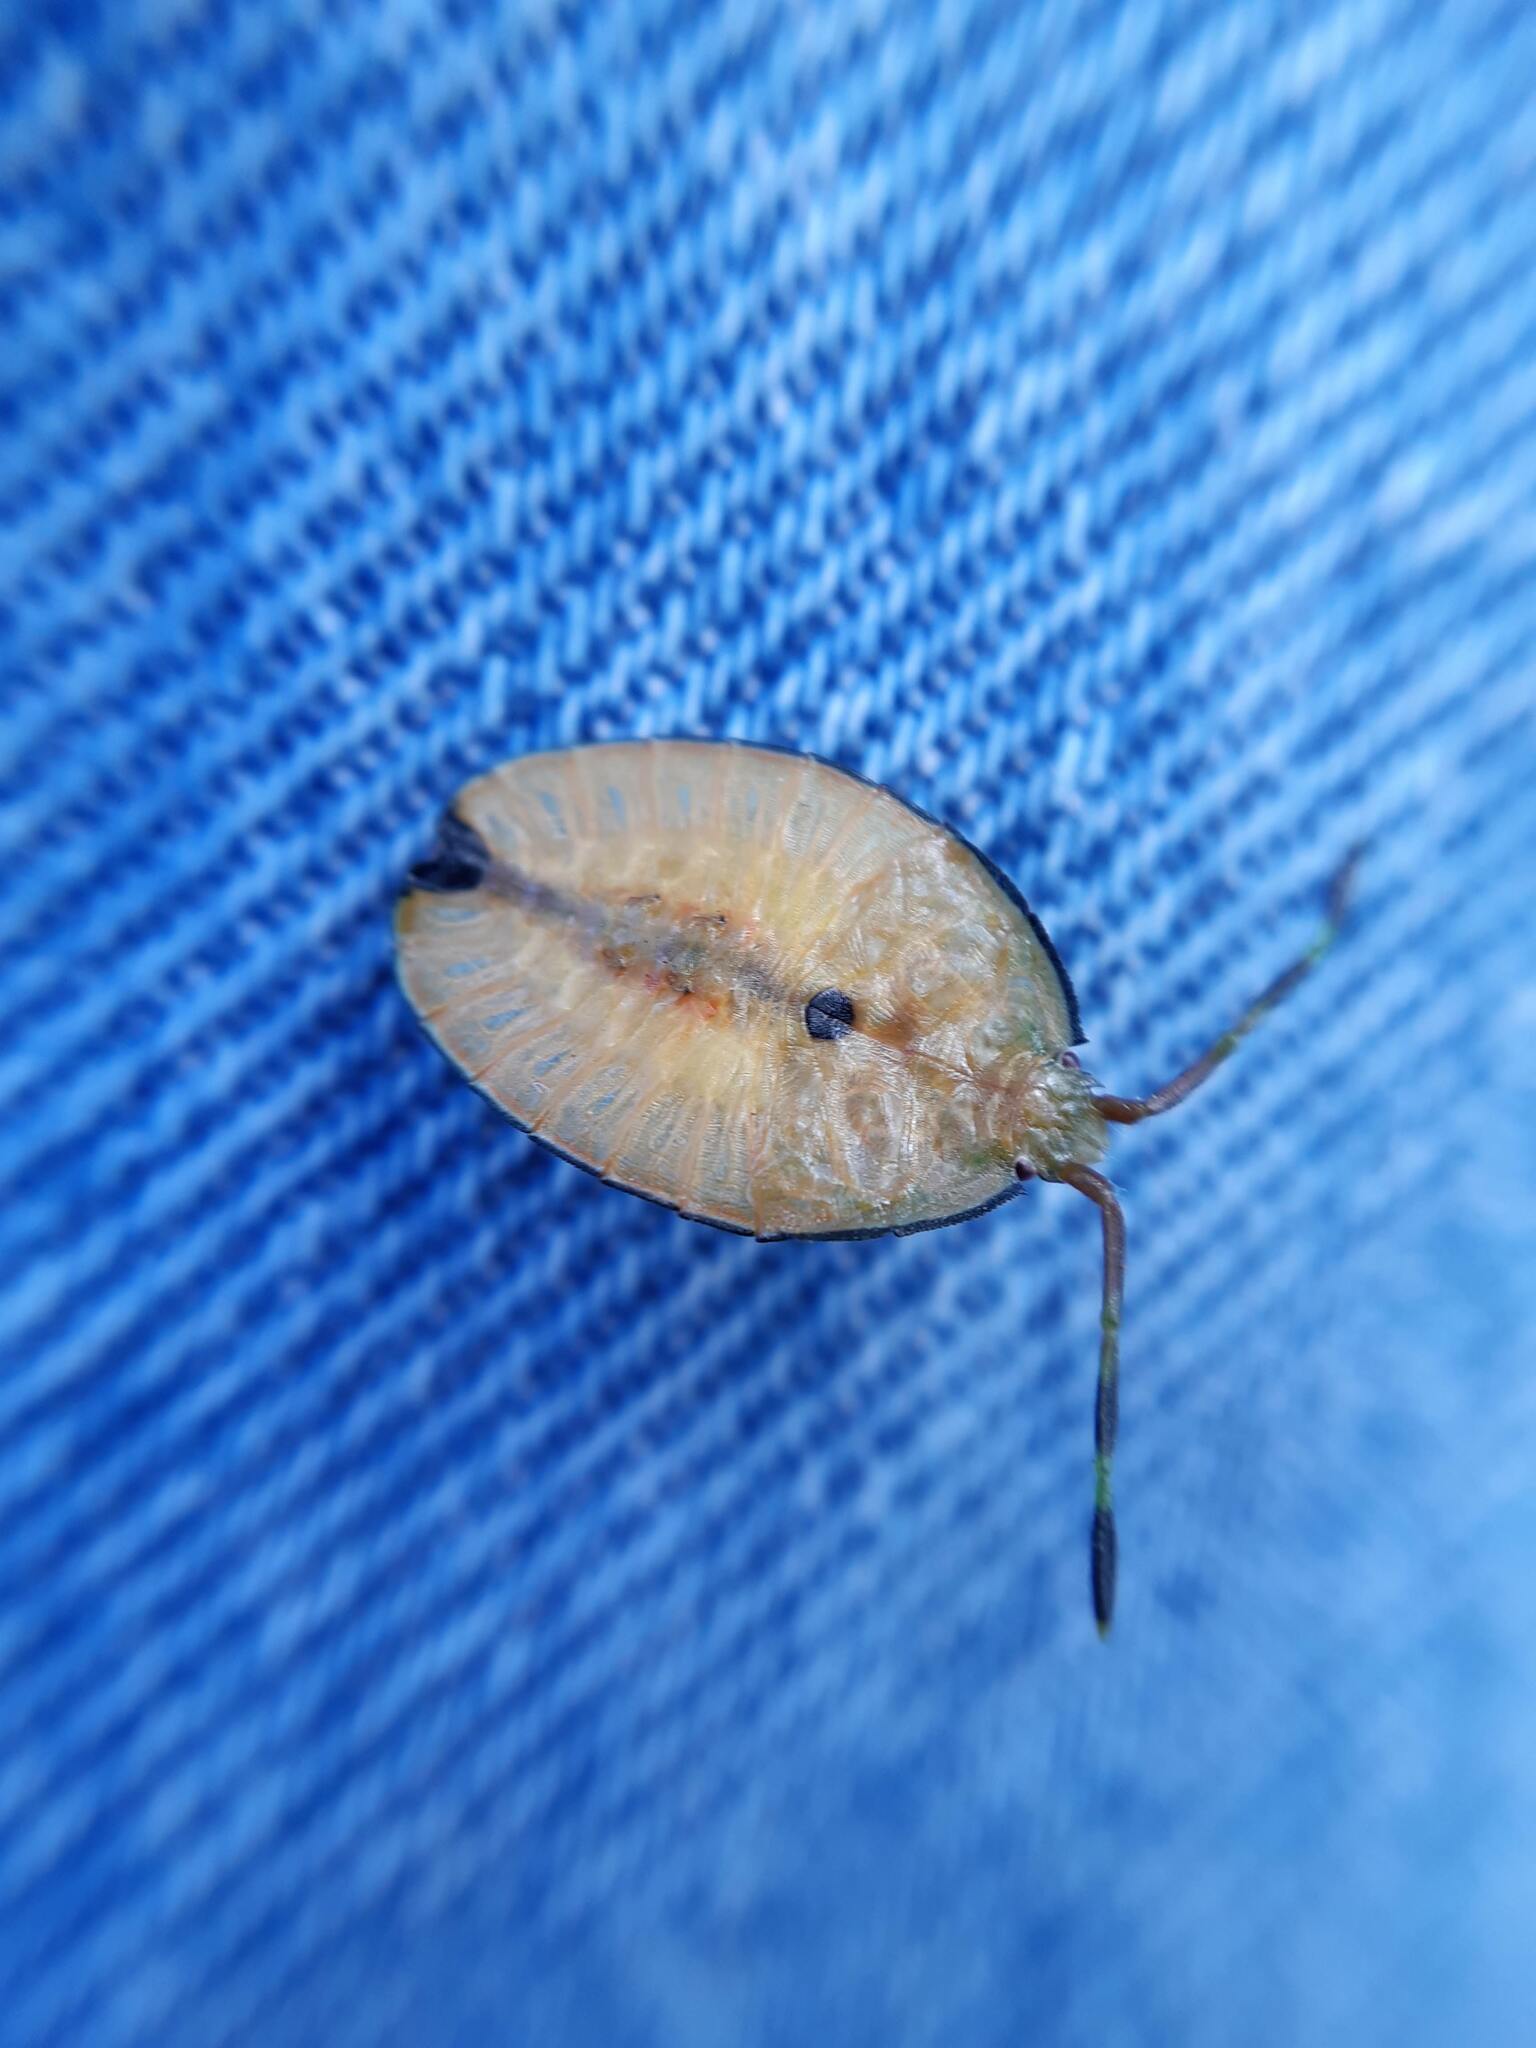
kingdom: Animalia
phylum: Arthropoda
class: Insecta
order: Hemiptera
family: Tessaratomidae
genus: Musgraveia
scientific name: Musgraveia sulciventris
